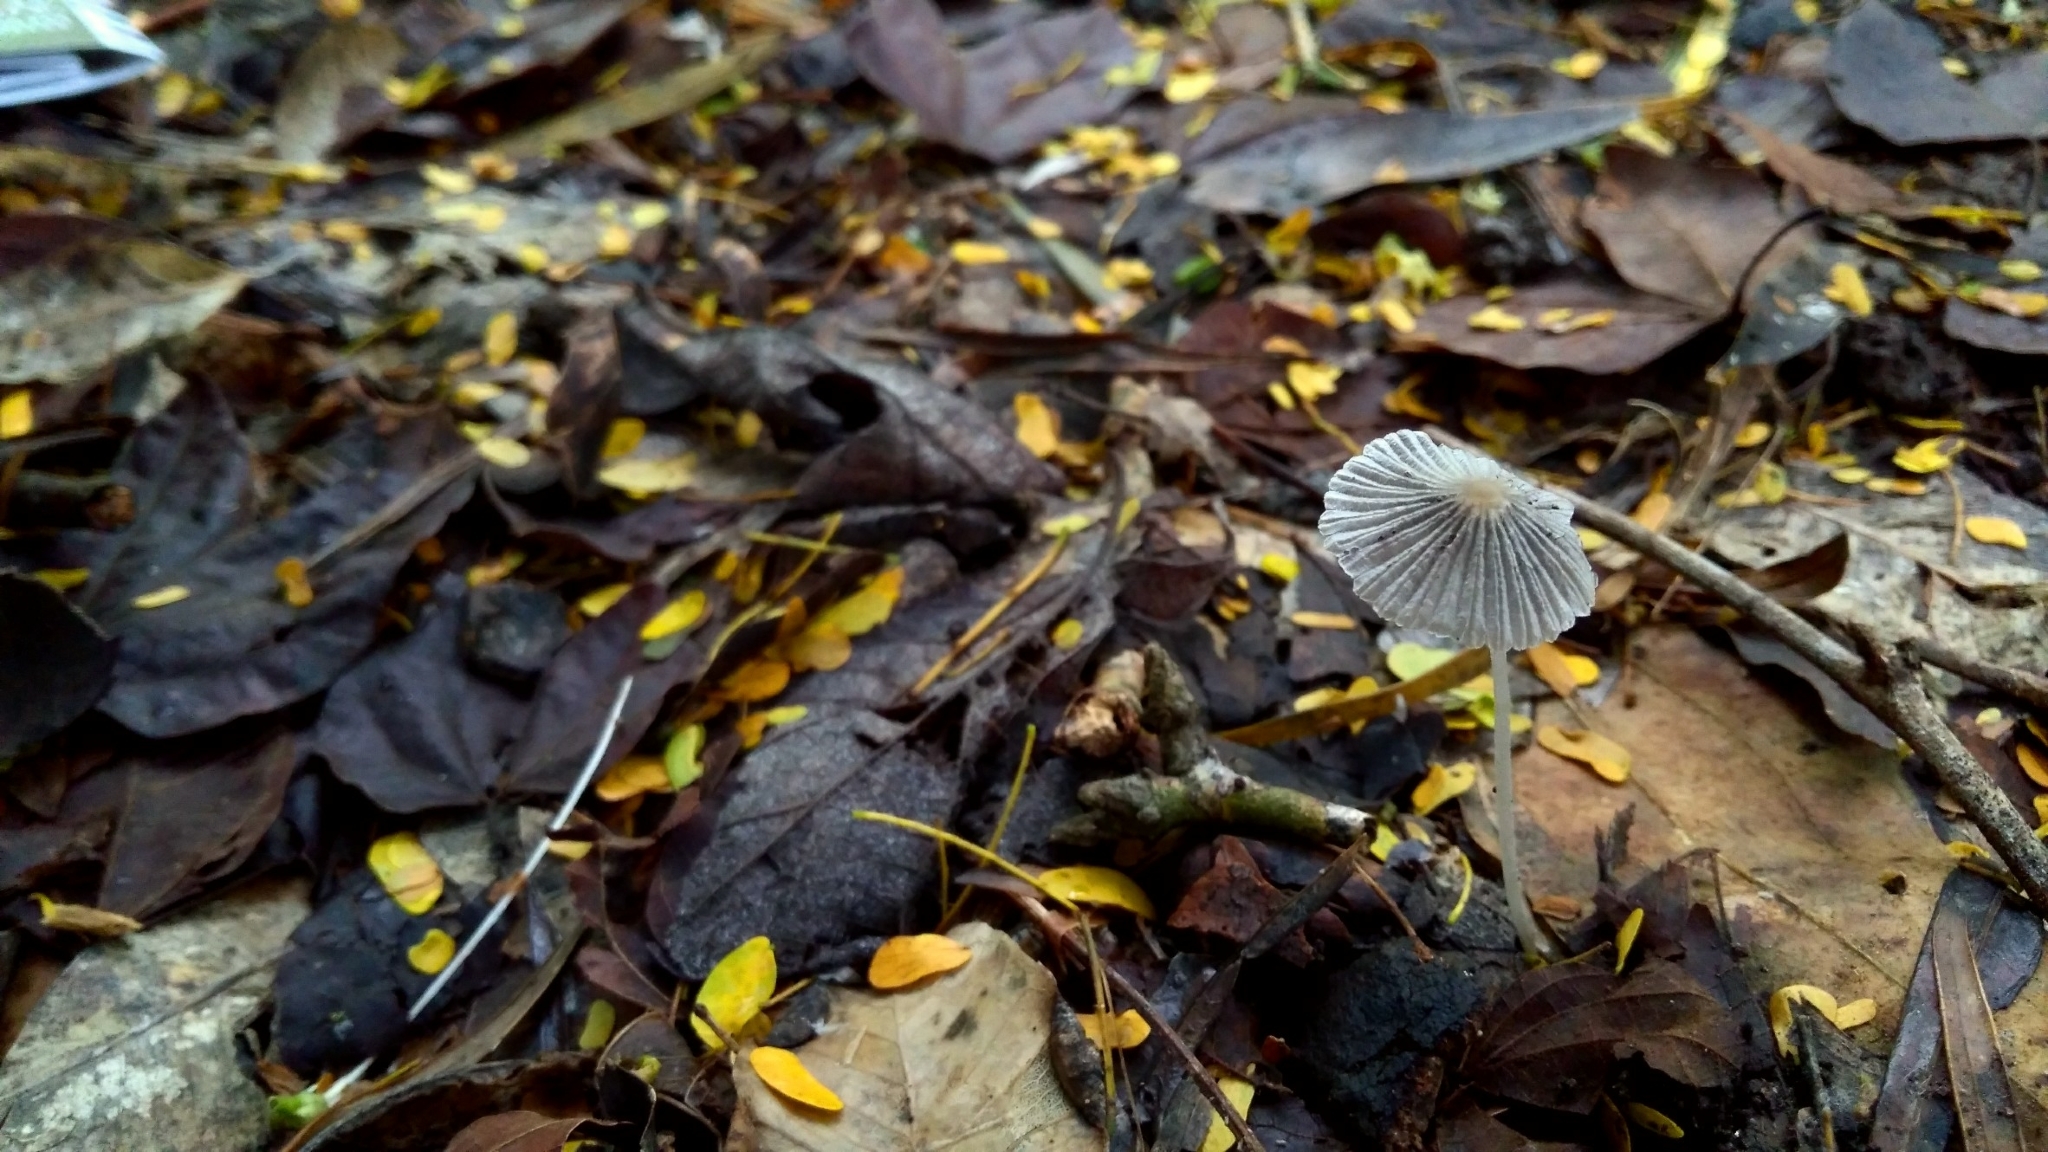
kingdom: Fungi
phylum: Basidiomycota
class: Agaricomycetes
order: Agaricales
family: Psathyrellaceae
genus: Parasola
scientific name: Parasola plicatilis
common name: Pleated inkcap
